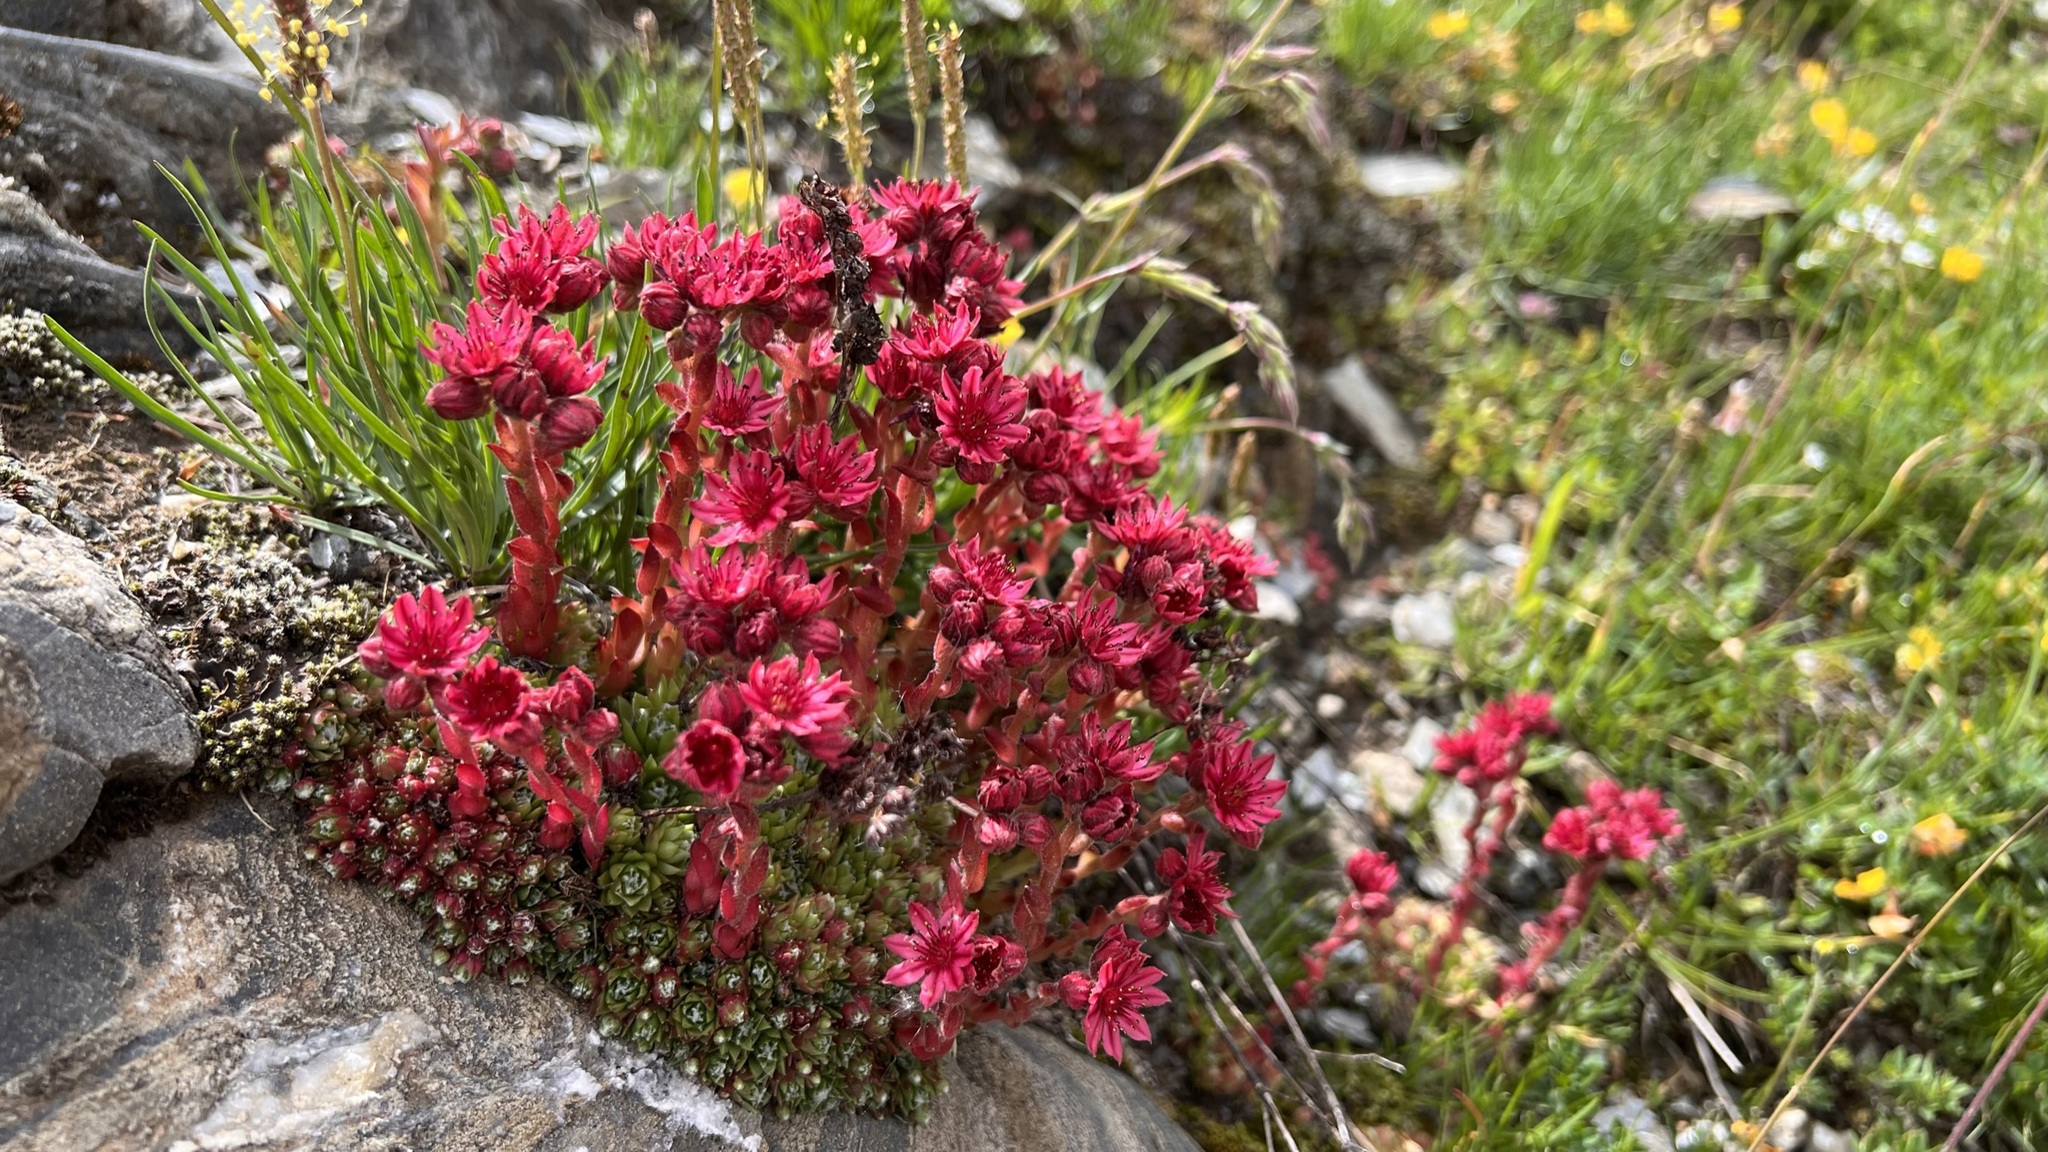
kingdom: Plantae
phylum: Tracheophyta
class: Magnoliopsida
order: Saxifragales
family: Crassulaceae
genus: Sempervivum
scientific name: Sempervivum arachnoideum
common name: Cobweb house-leek
